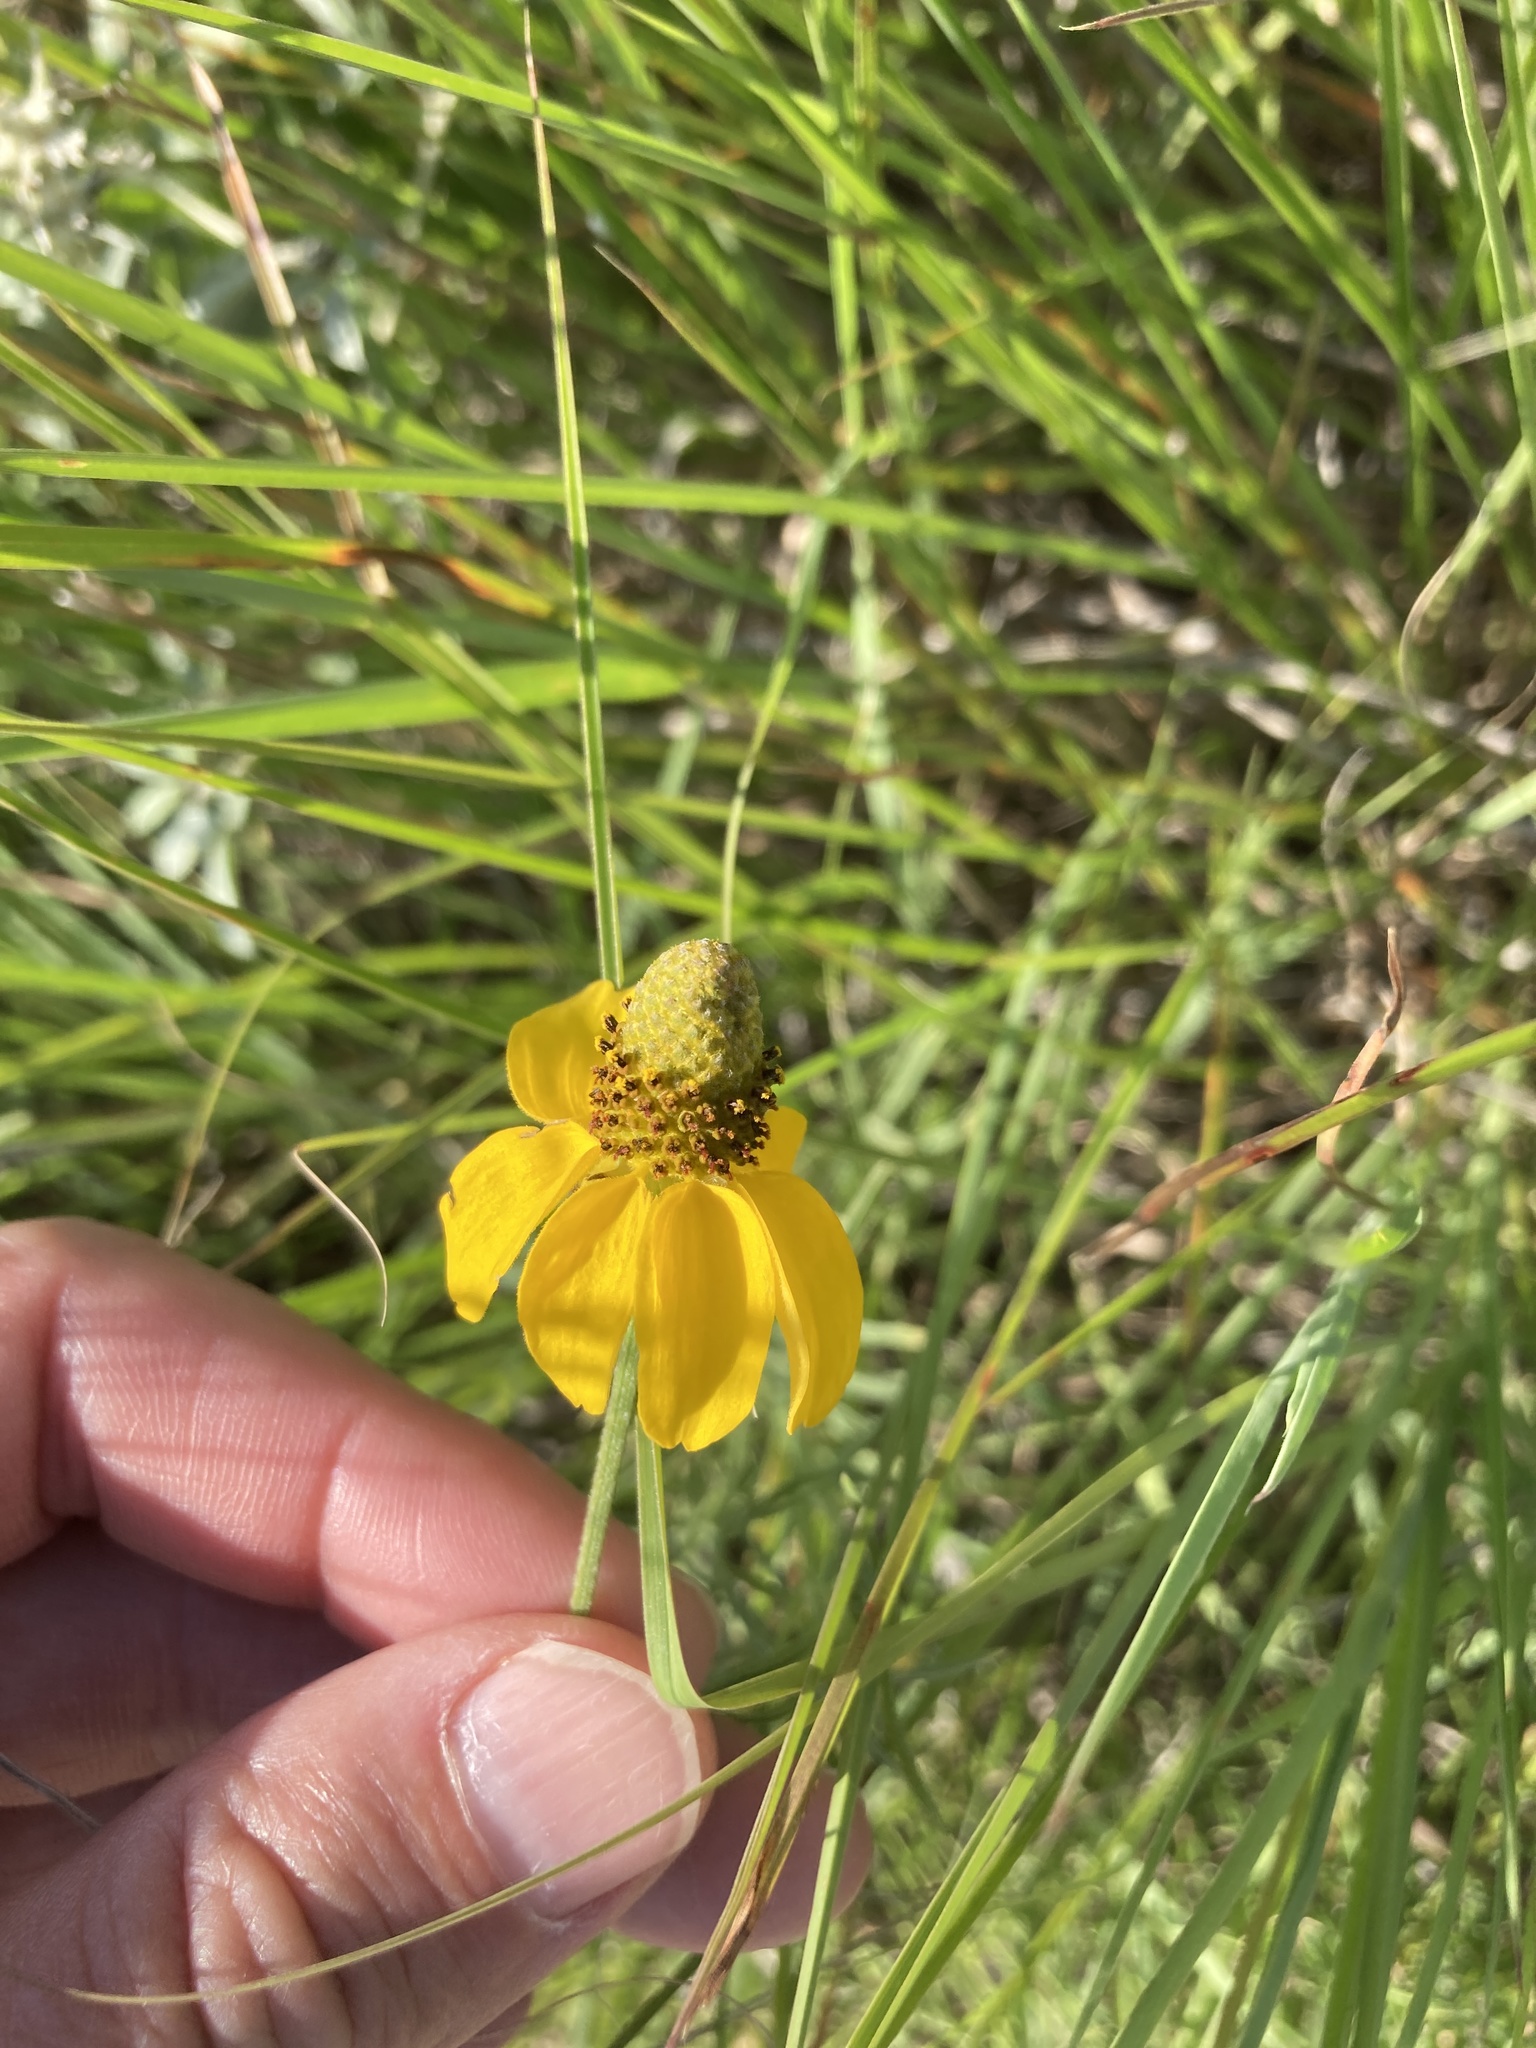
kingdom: Plantae
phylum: Tracheophyta
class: Magnoliopsida
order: Asterales
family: Asteraceae
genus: Ratibida
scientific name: Ratibida columnifera
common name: Prairie coneflower
